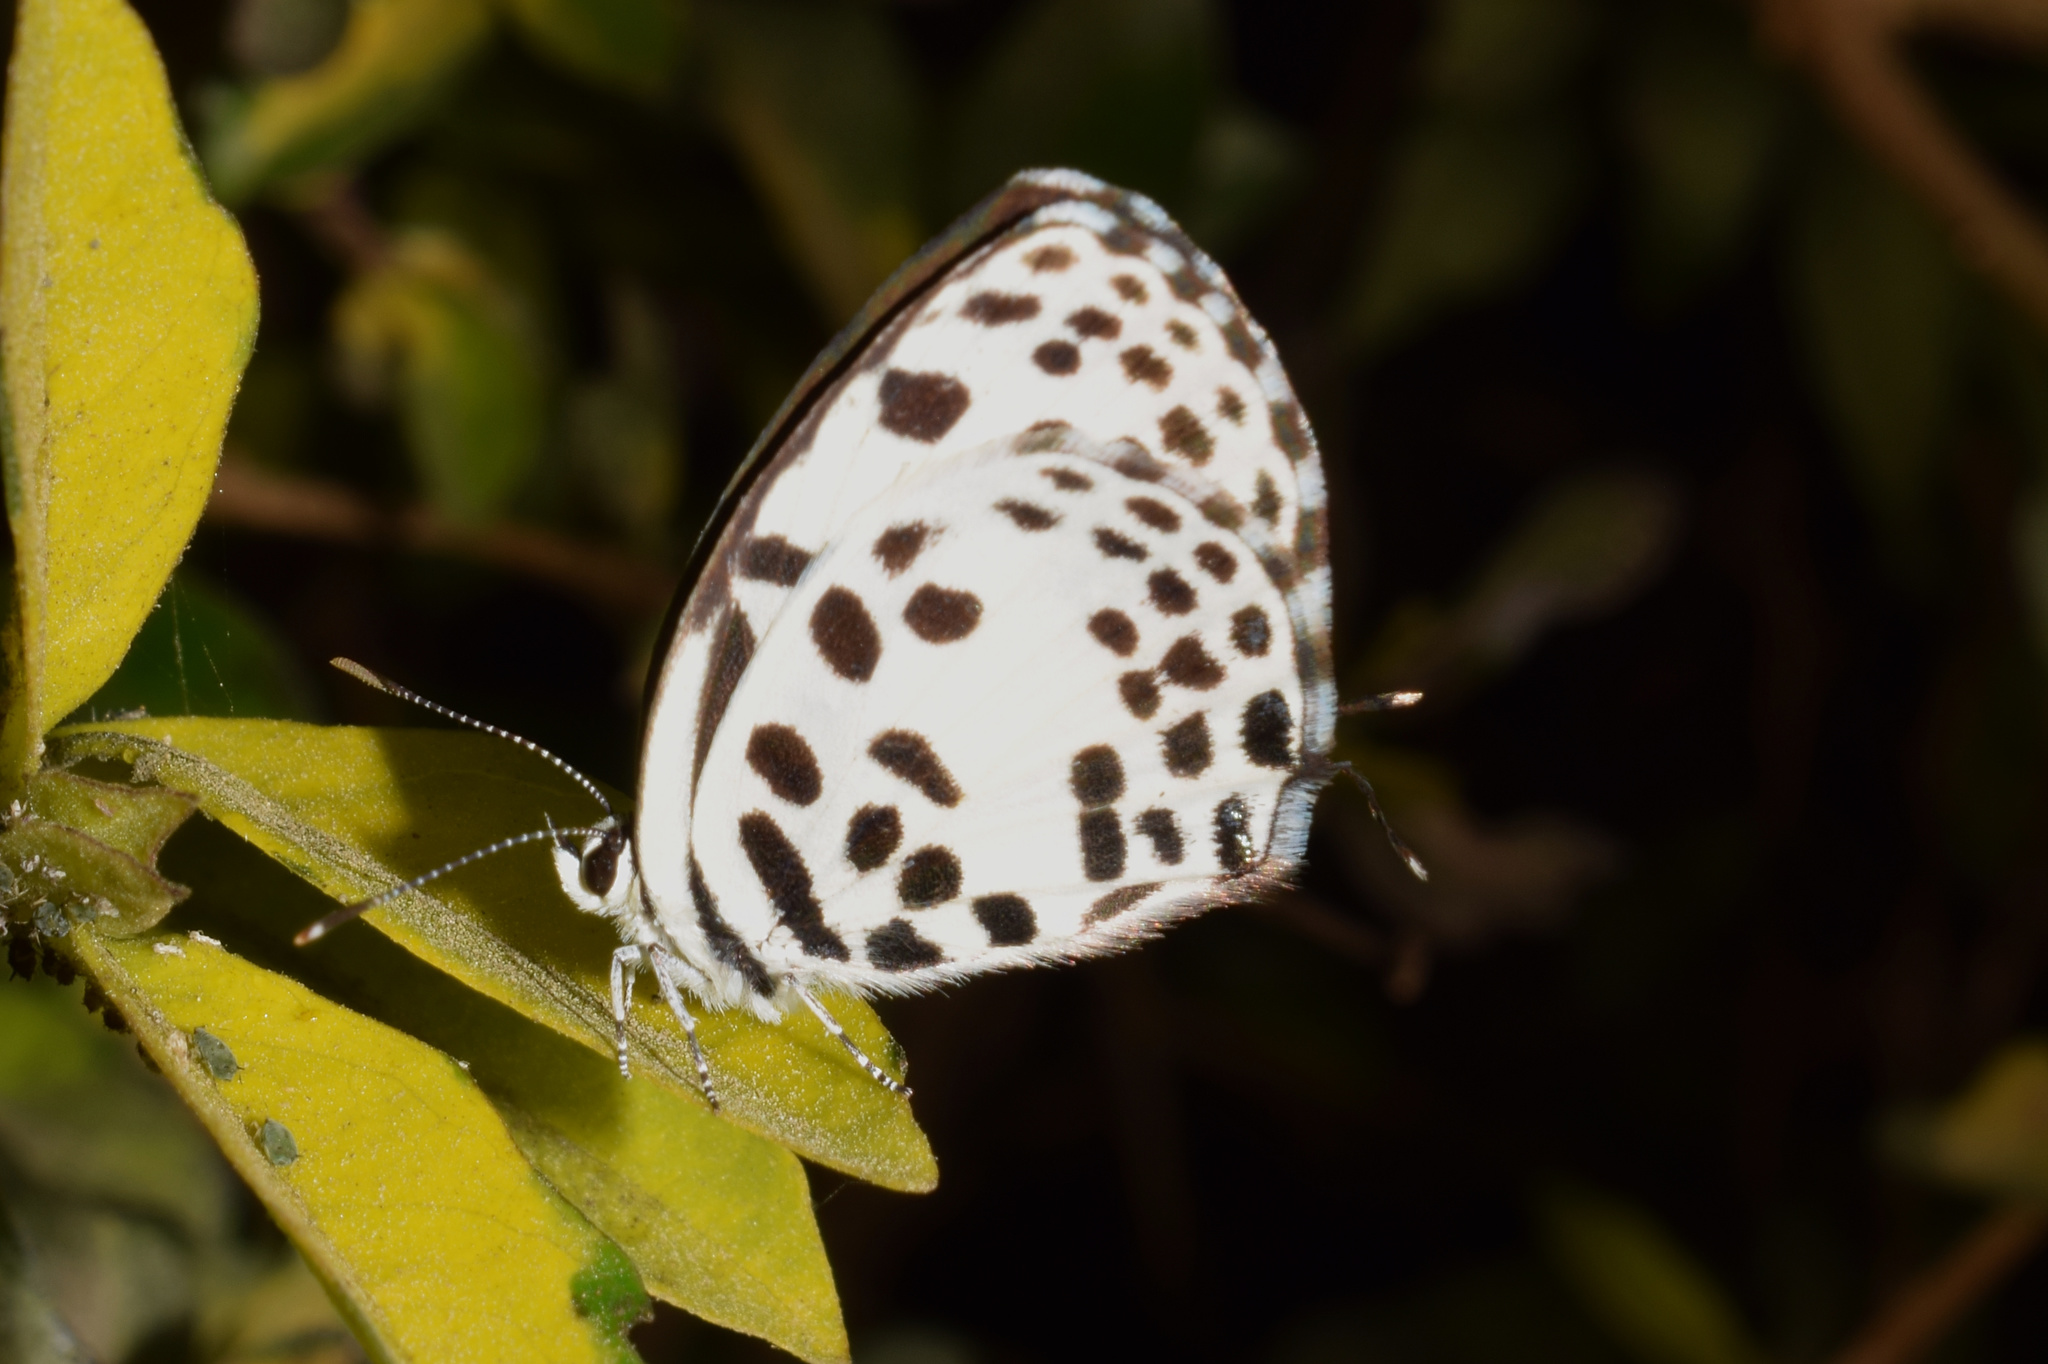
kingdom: Animalia
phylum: Arthropoda
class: Insecta
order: Lepidoptera
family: Lycaenidae
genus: Castalius
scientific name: Castalius rosimon
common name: Common pierrot
